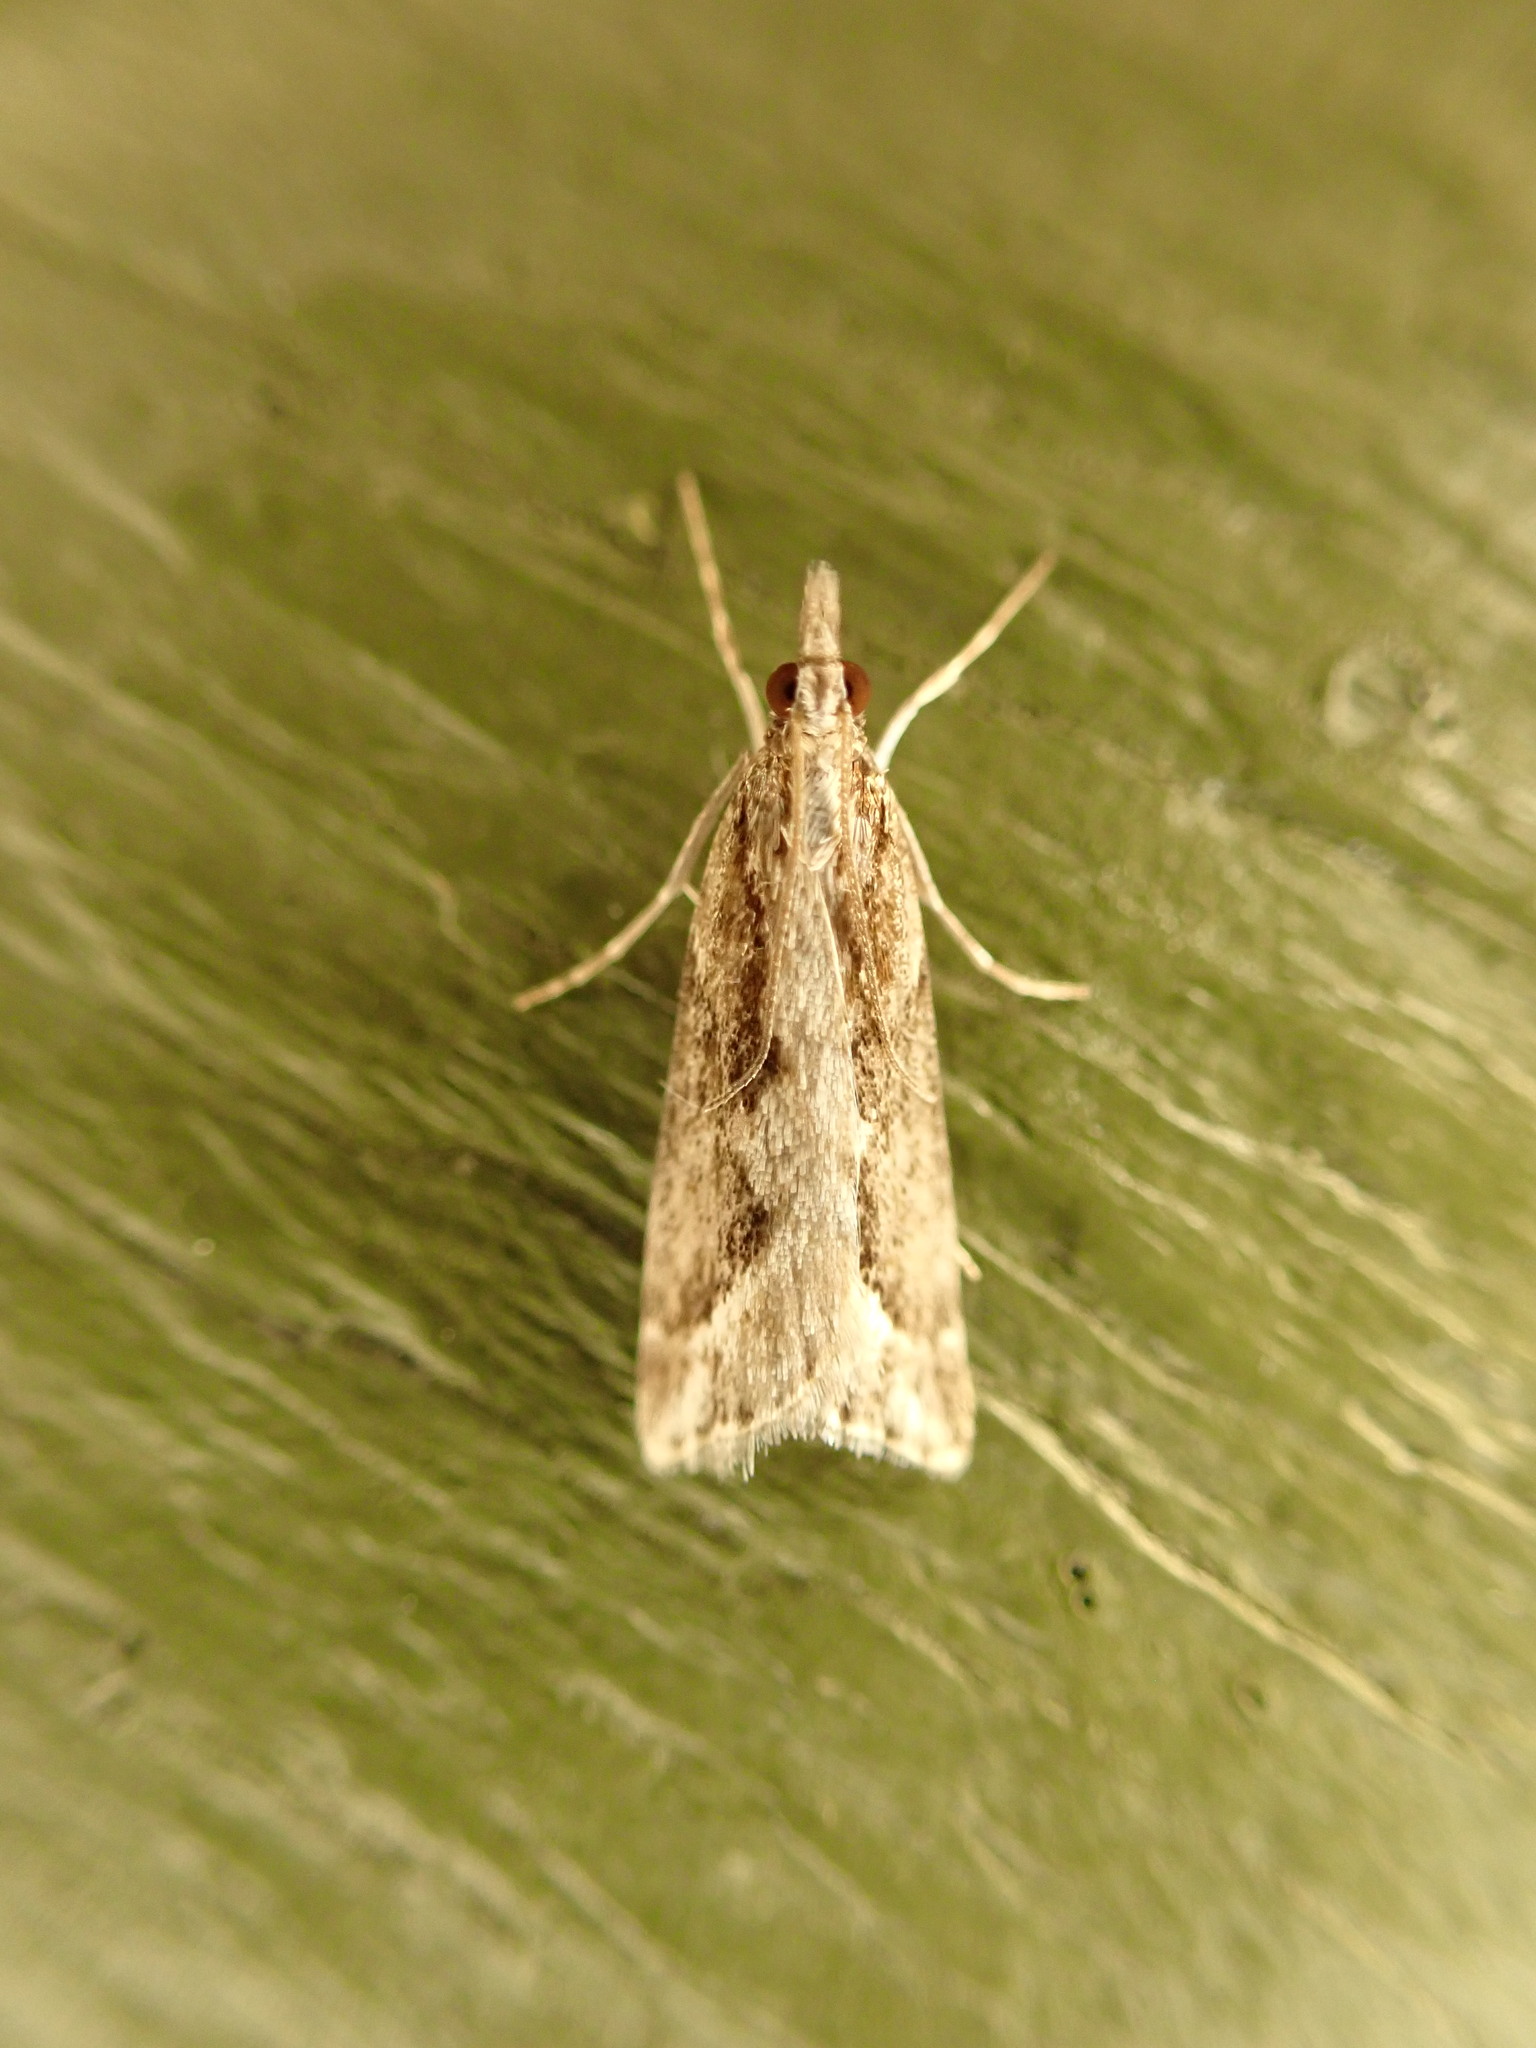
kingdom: Animalia
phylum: Arthropoda
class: Insecta
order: Lepidoptera
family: Crambidae
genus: Eudonia
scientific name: Eudonia steropaea
